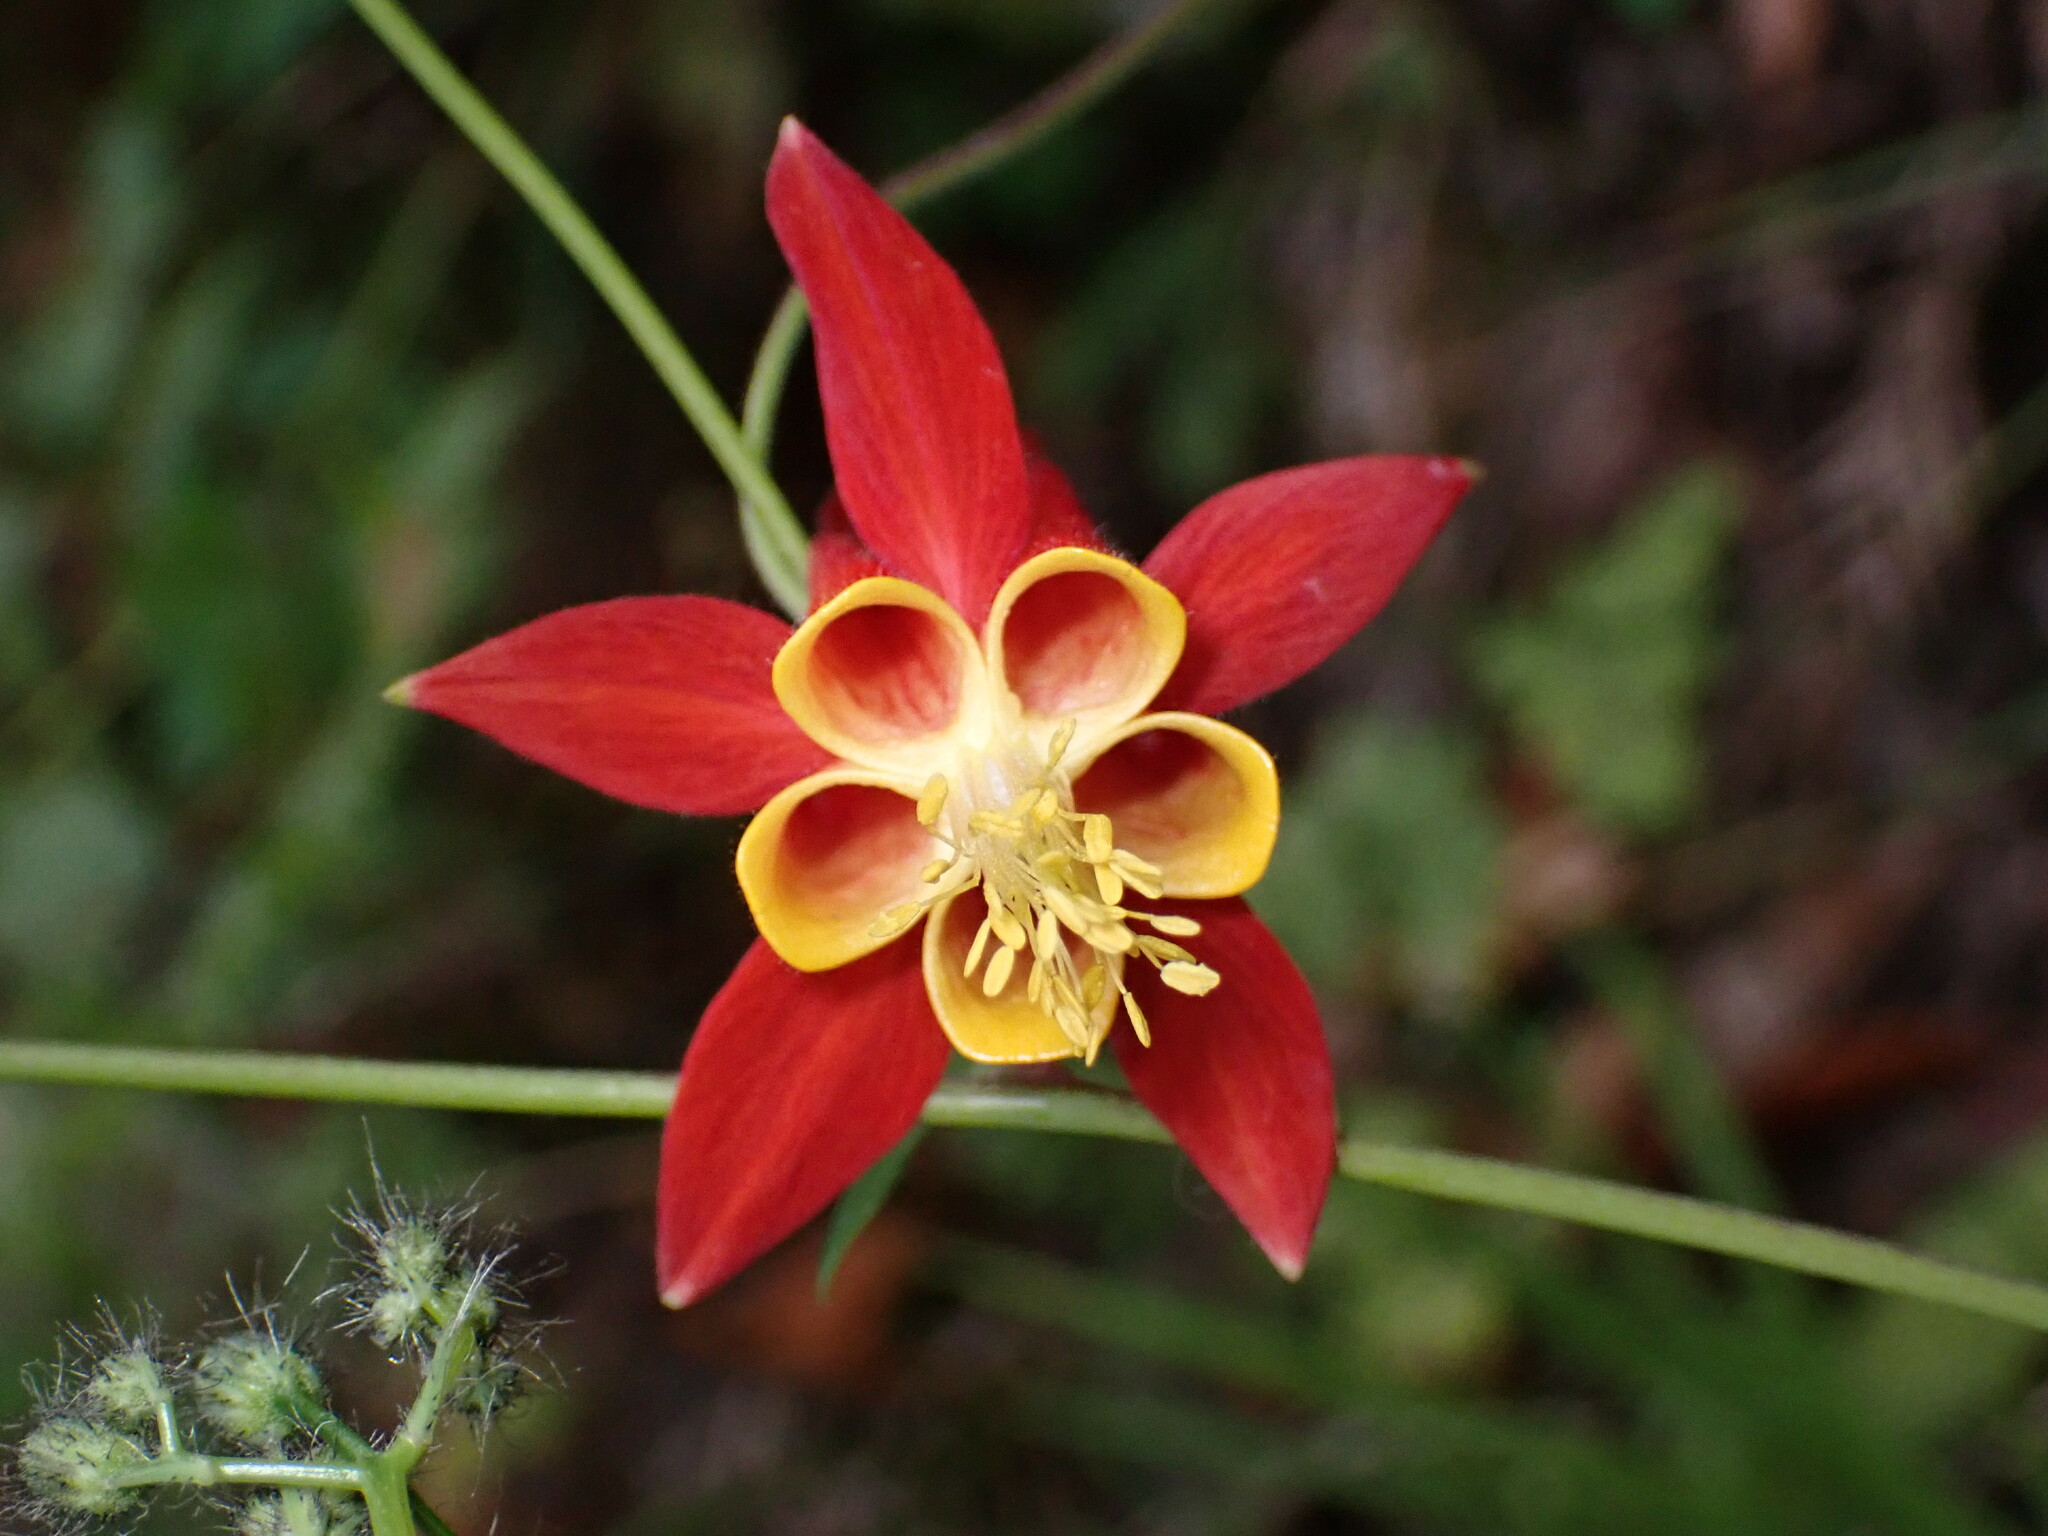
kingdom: Plantae
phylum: Tracheophyta
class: Magnoliopsida
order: Ranunculales
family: Ranunculaceae
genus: Aquilegia
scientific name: Aquilegia formosa
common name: Sitka columbine
